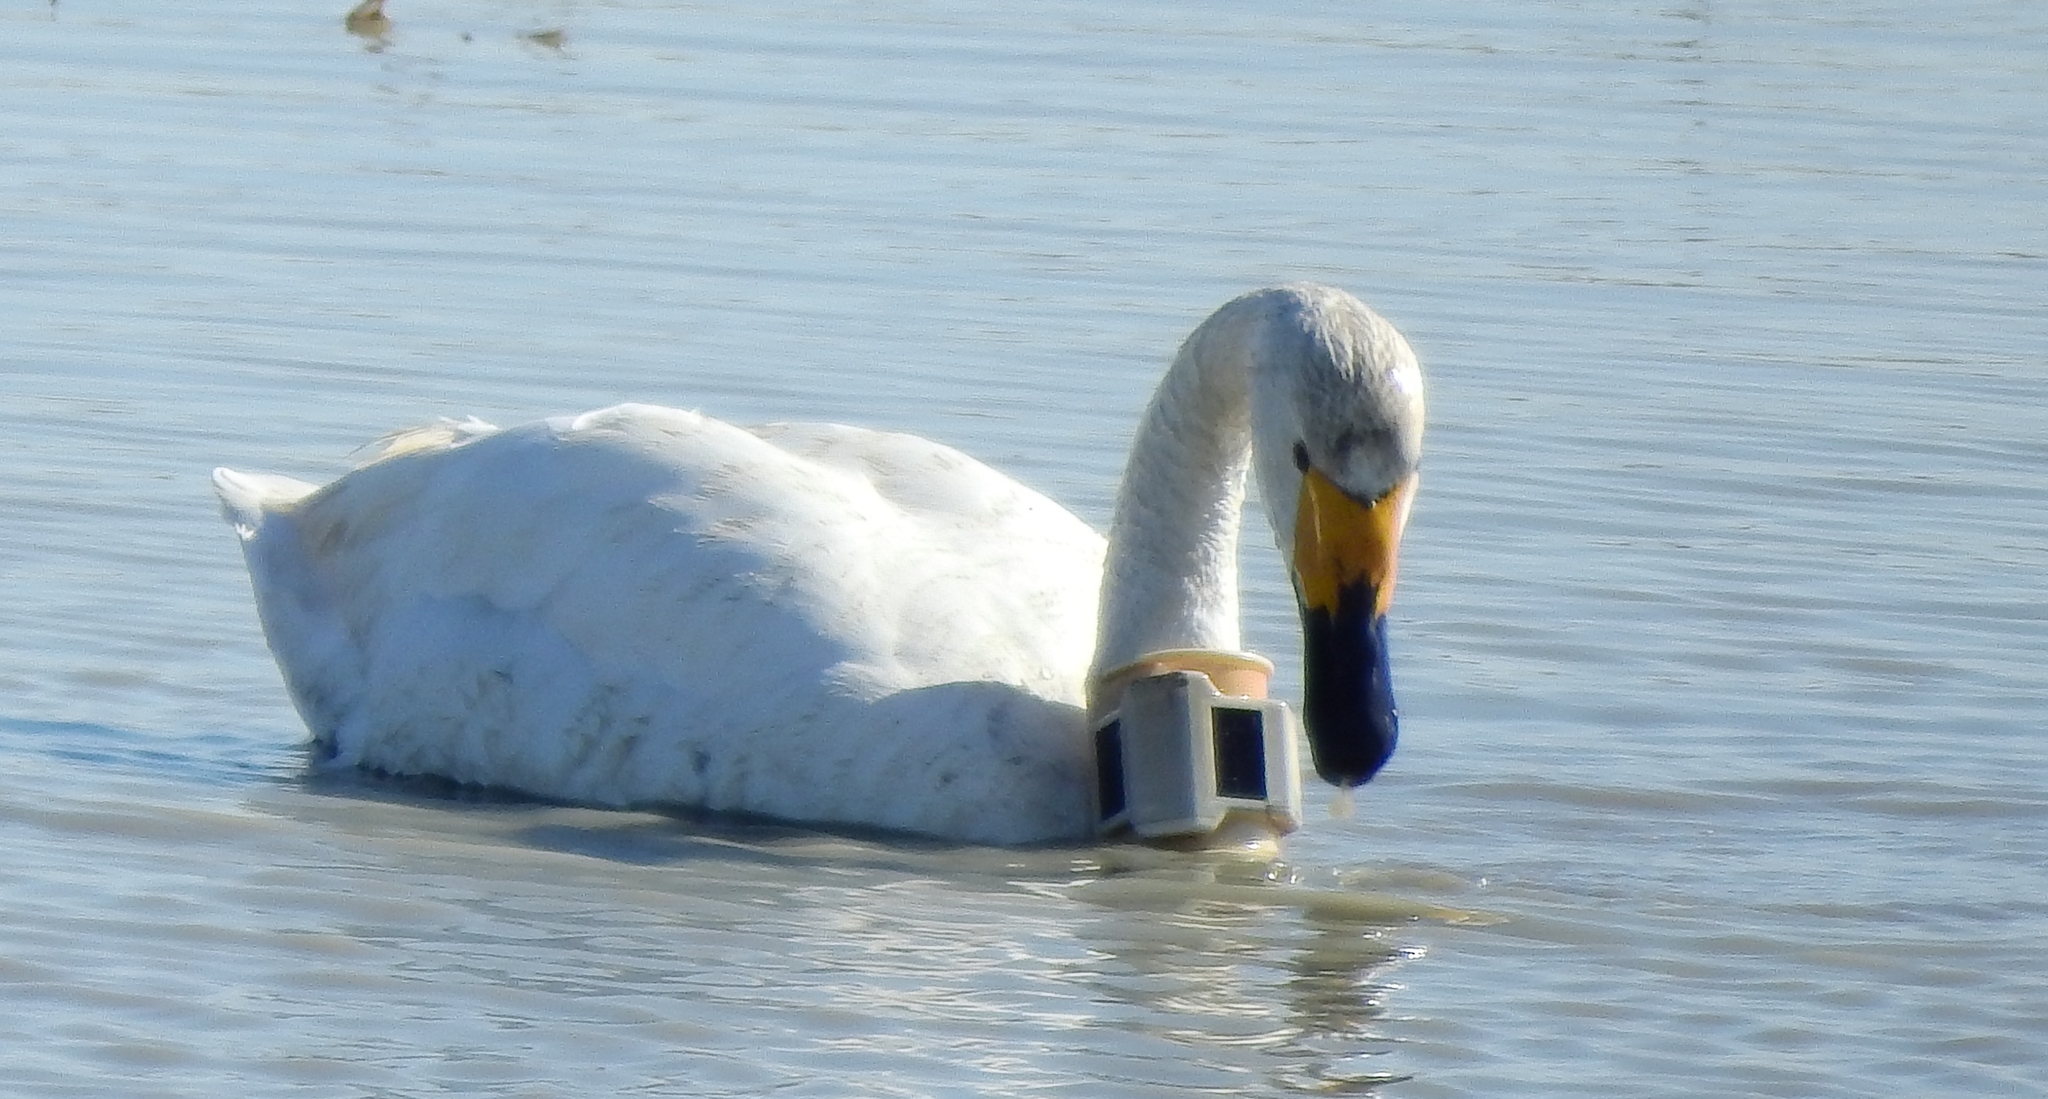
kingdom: Animalia
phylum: Chordata
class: Aves
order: Anseriformes
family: Anatidae
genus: Cygnus
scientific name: Cygnus columbianus
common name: Tundra swan
